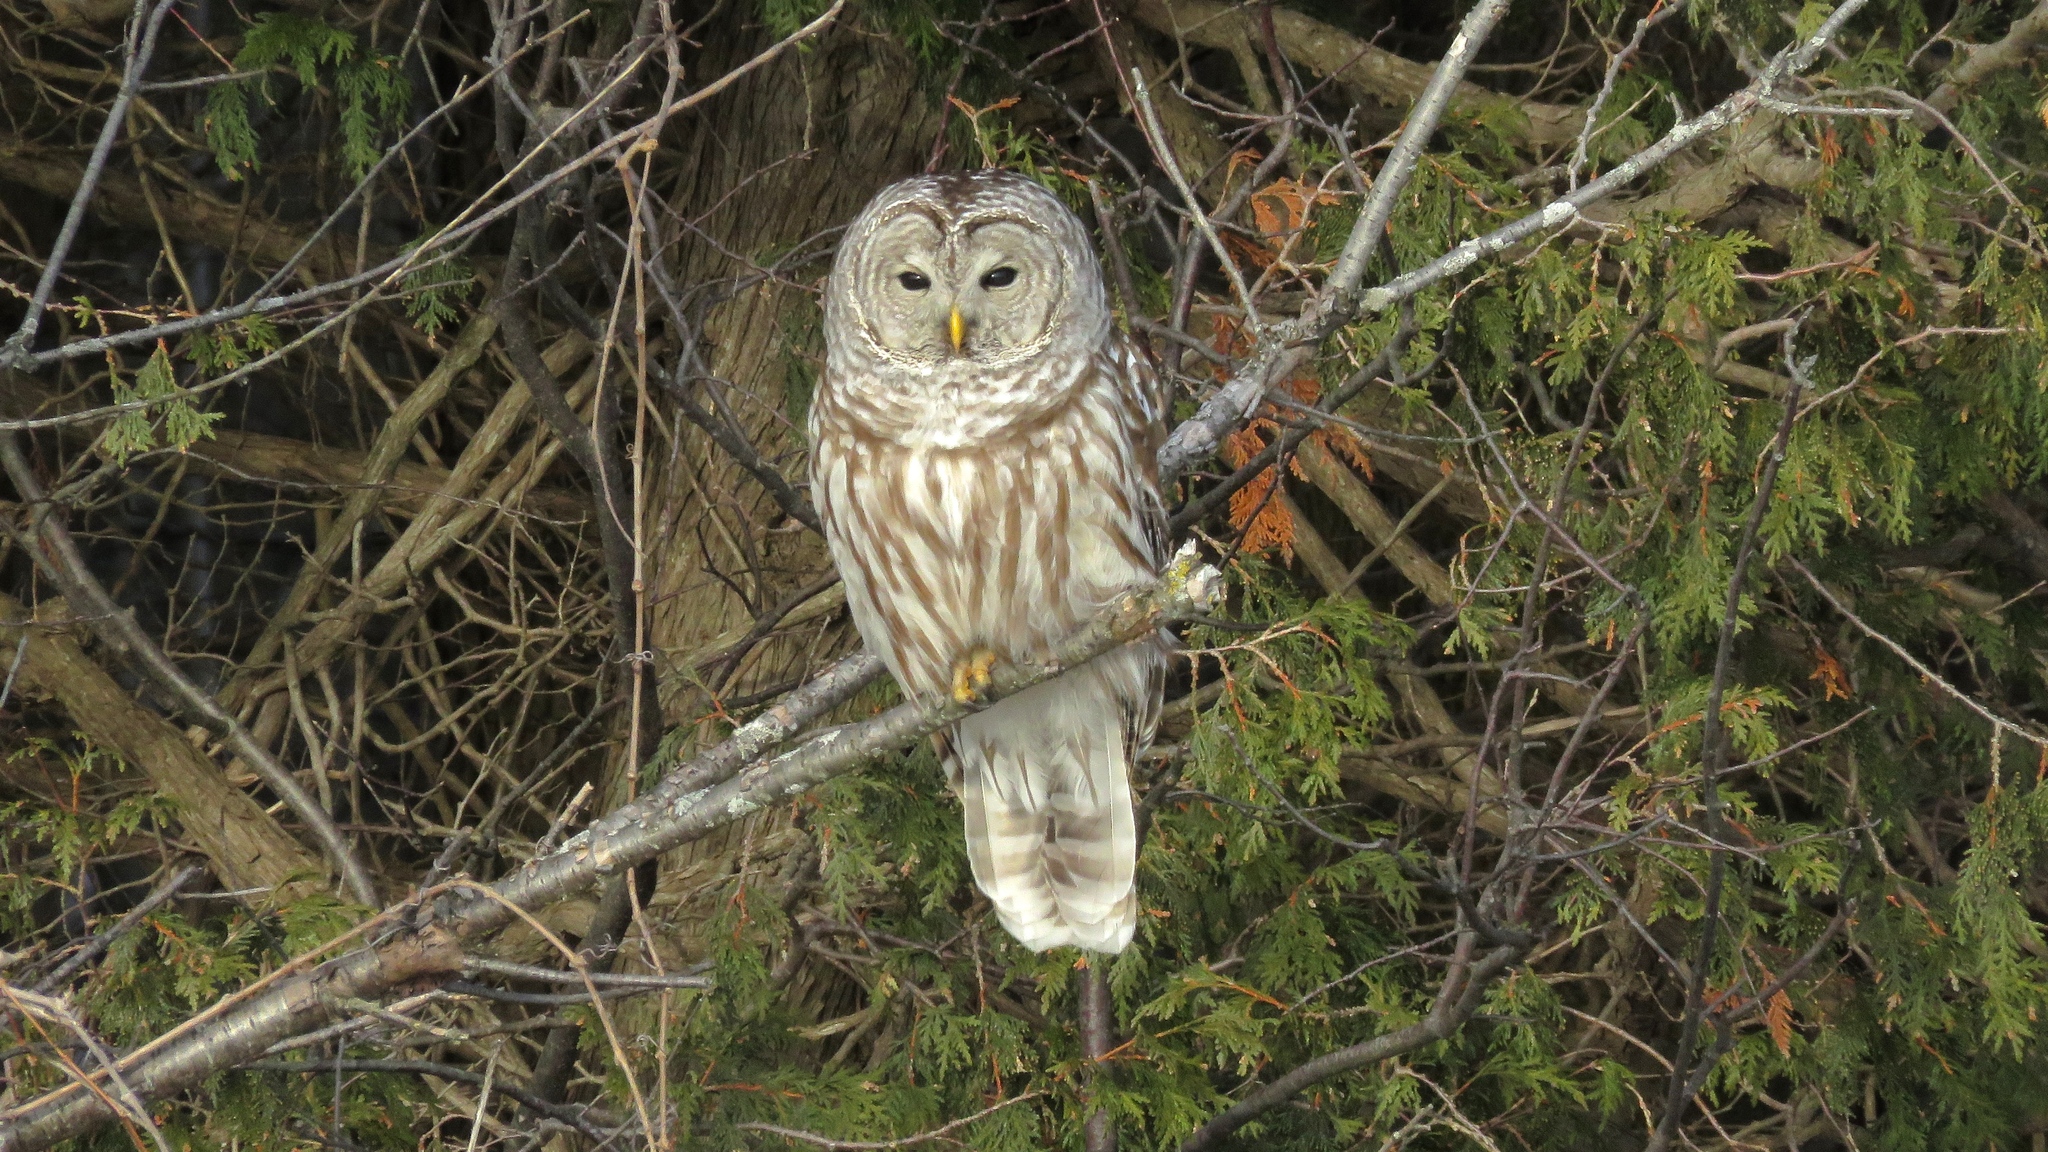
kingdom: Animalia
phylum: Chordata
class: Aves
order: Strigiformes
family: Strigidae
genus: Strix
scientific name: Strix varia
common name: Barred owl
